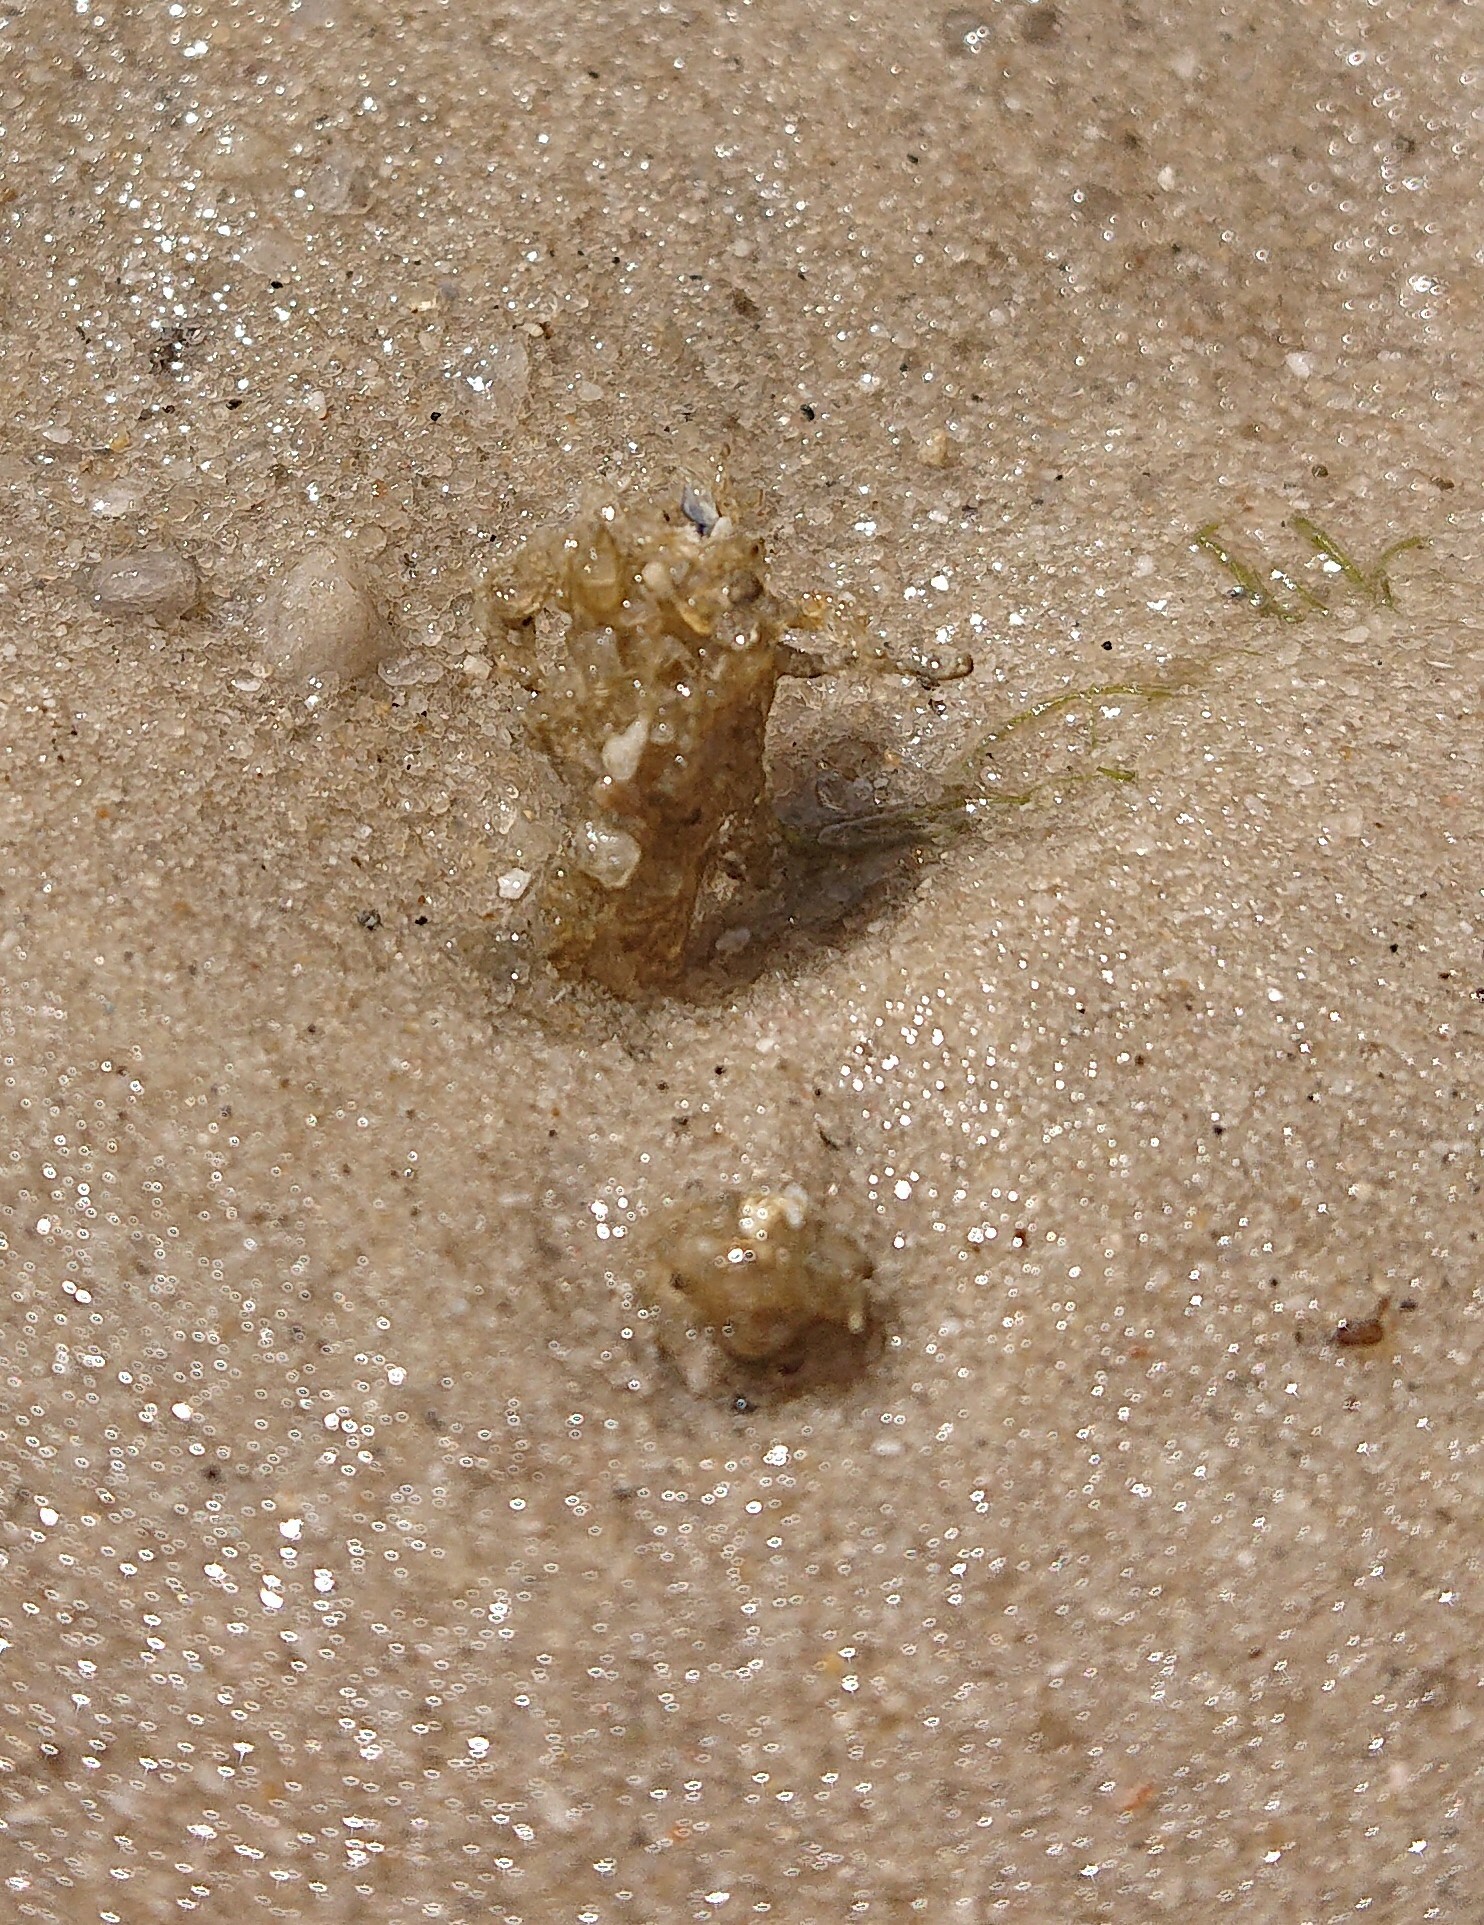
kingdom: Animalia
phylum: Annelida
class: Polychaeta
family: Terebellidae
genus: Lanice
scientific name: Lanice conchilega
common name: Sand mason
